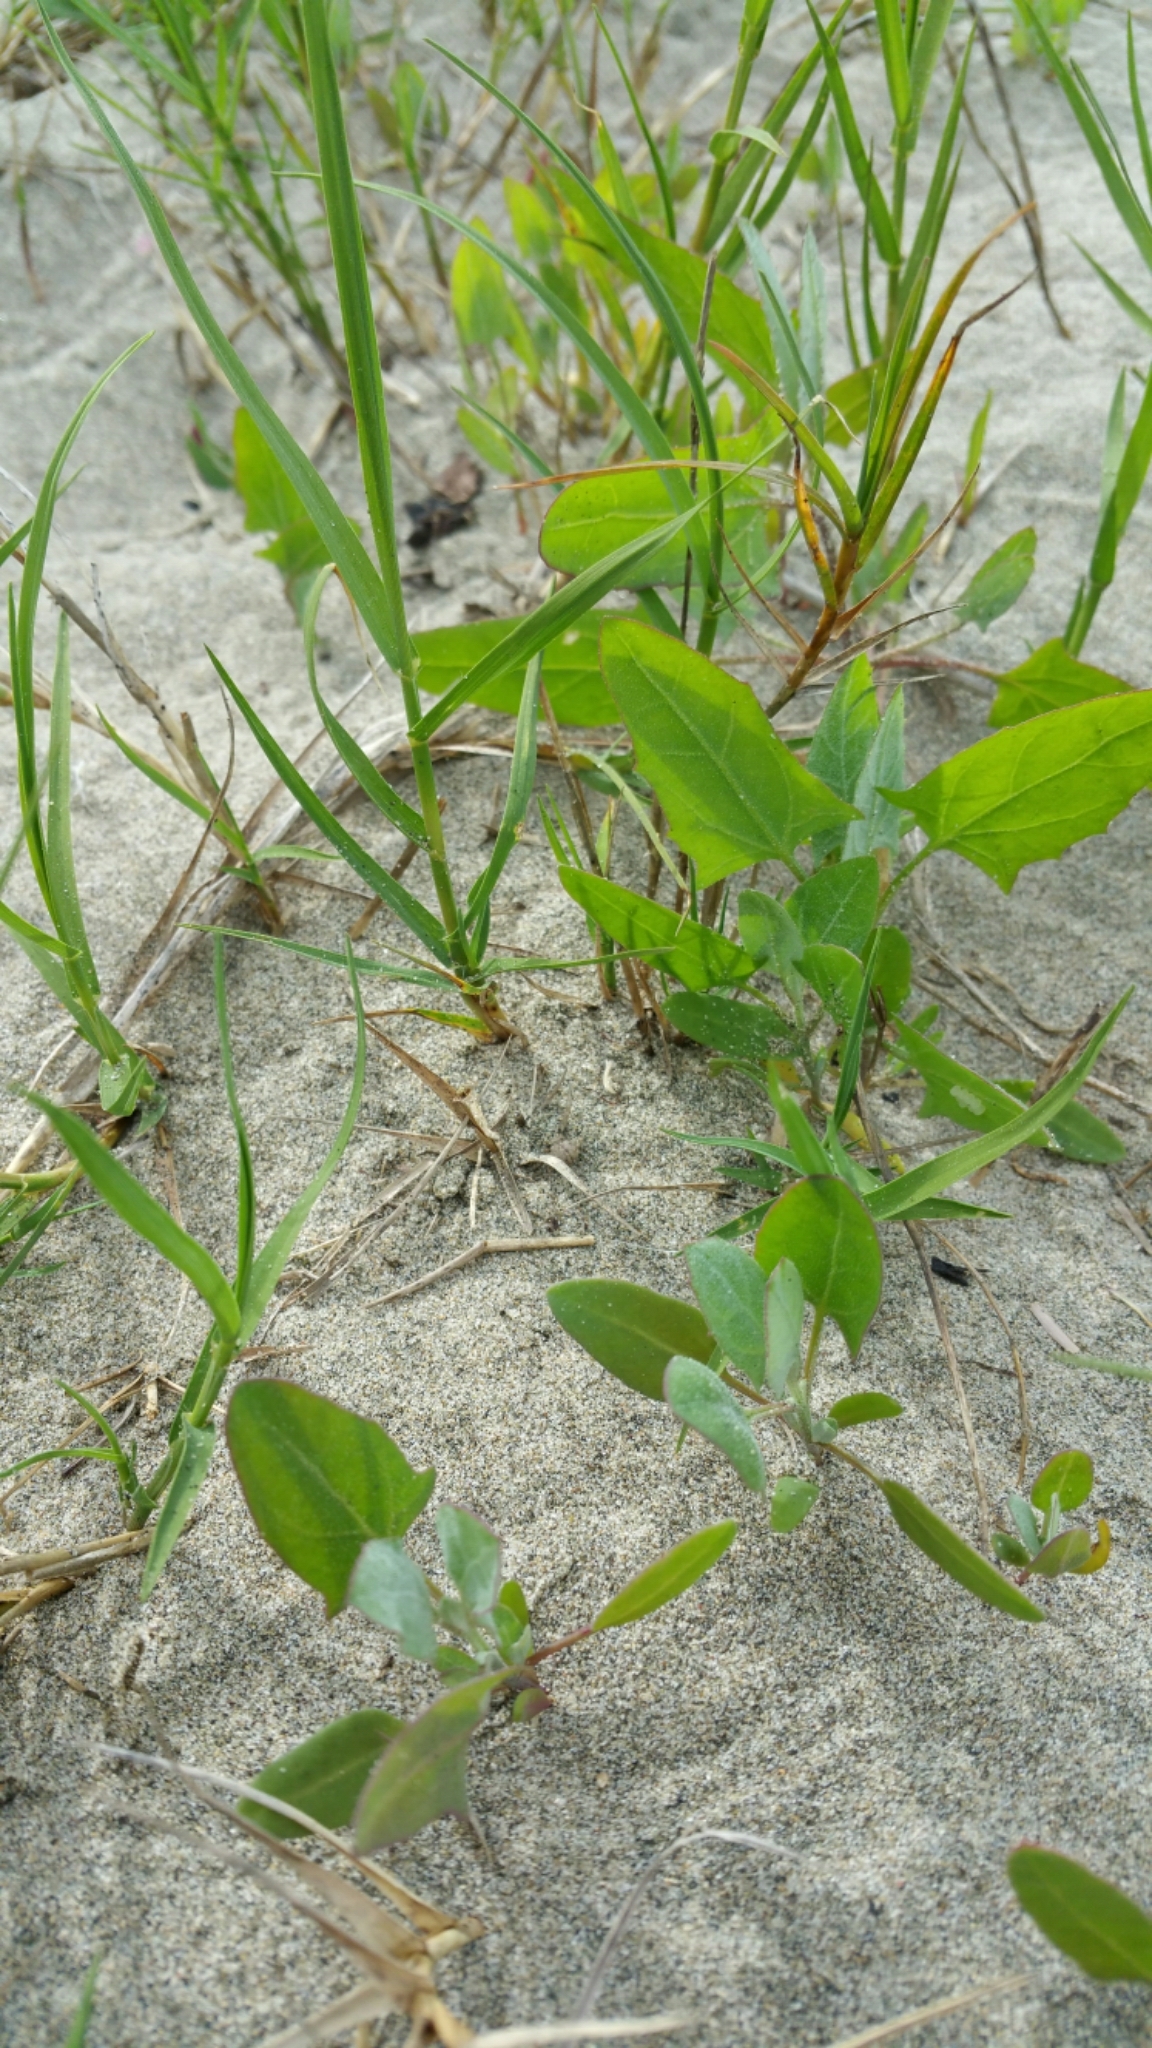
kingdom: Plantae
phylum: Tracheophyta
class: Magnoliopsida
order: Caryophyllales
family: Amaranthaceae
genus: Atriplex
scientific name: Atriplex prostrata
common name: Spear-leaved orache
